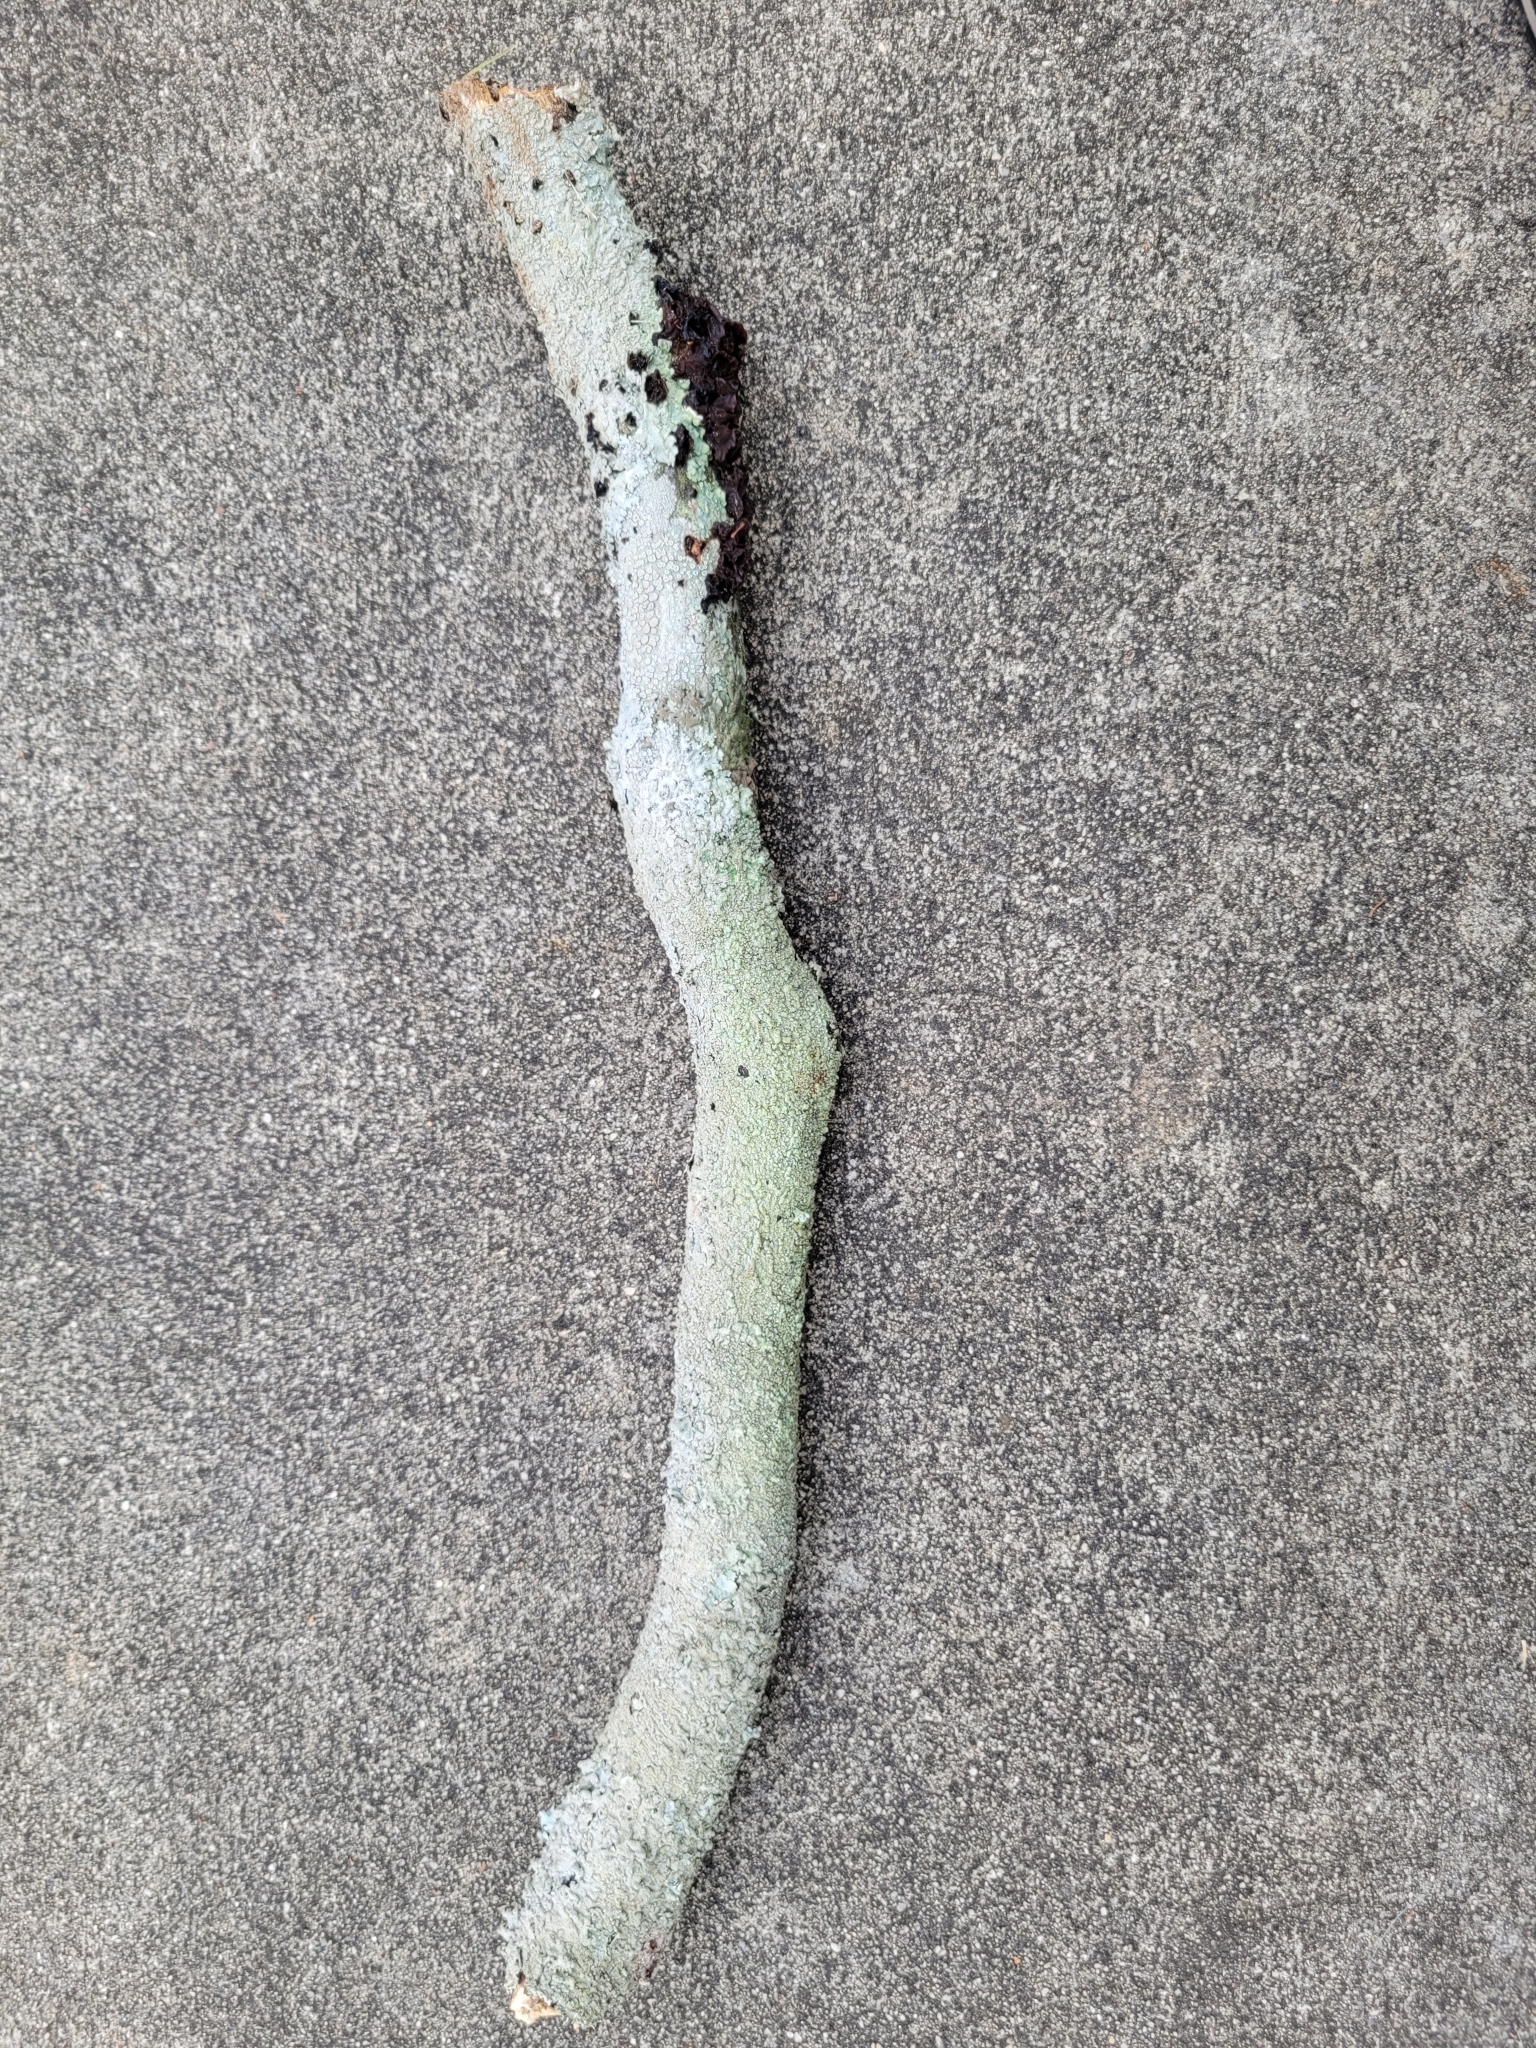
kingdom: Fungi
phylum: Ascomycota
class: Lecanoromycetes
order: Pertusariales
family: Ochrolechiaceae
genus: Ochrolechia
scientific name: Ochrolechia africana
